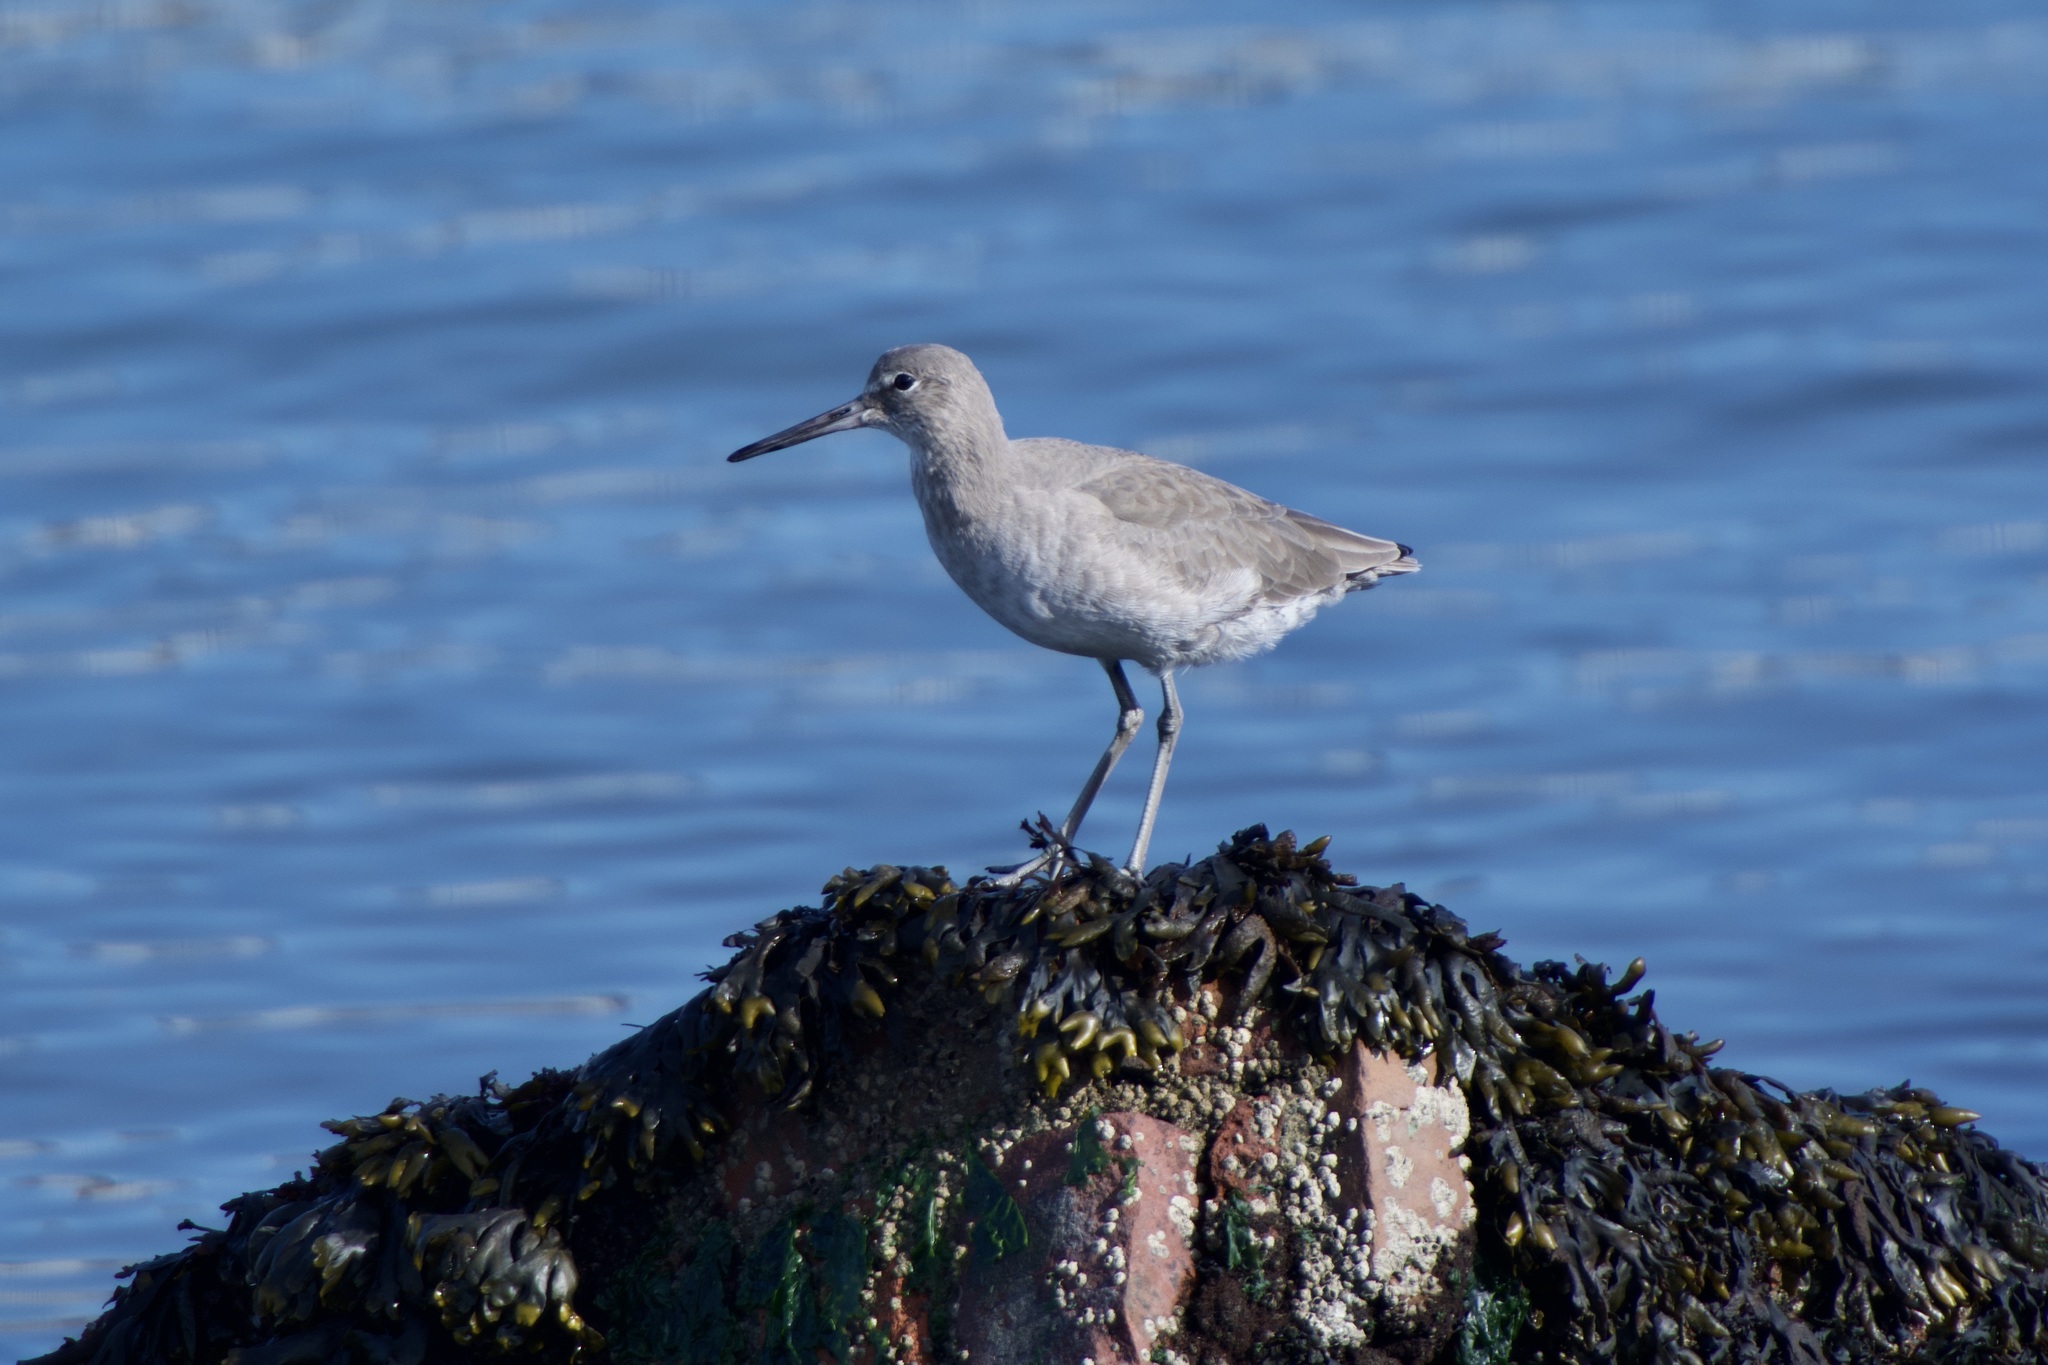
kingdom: Animalia
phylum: Chordata
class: Aves
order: Charadriiformes
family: Scolopacidae
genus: Tringa
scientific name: Tringa semipalmata
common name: Willet
